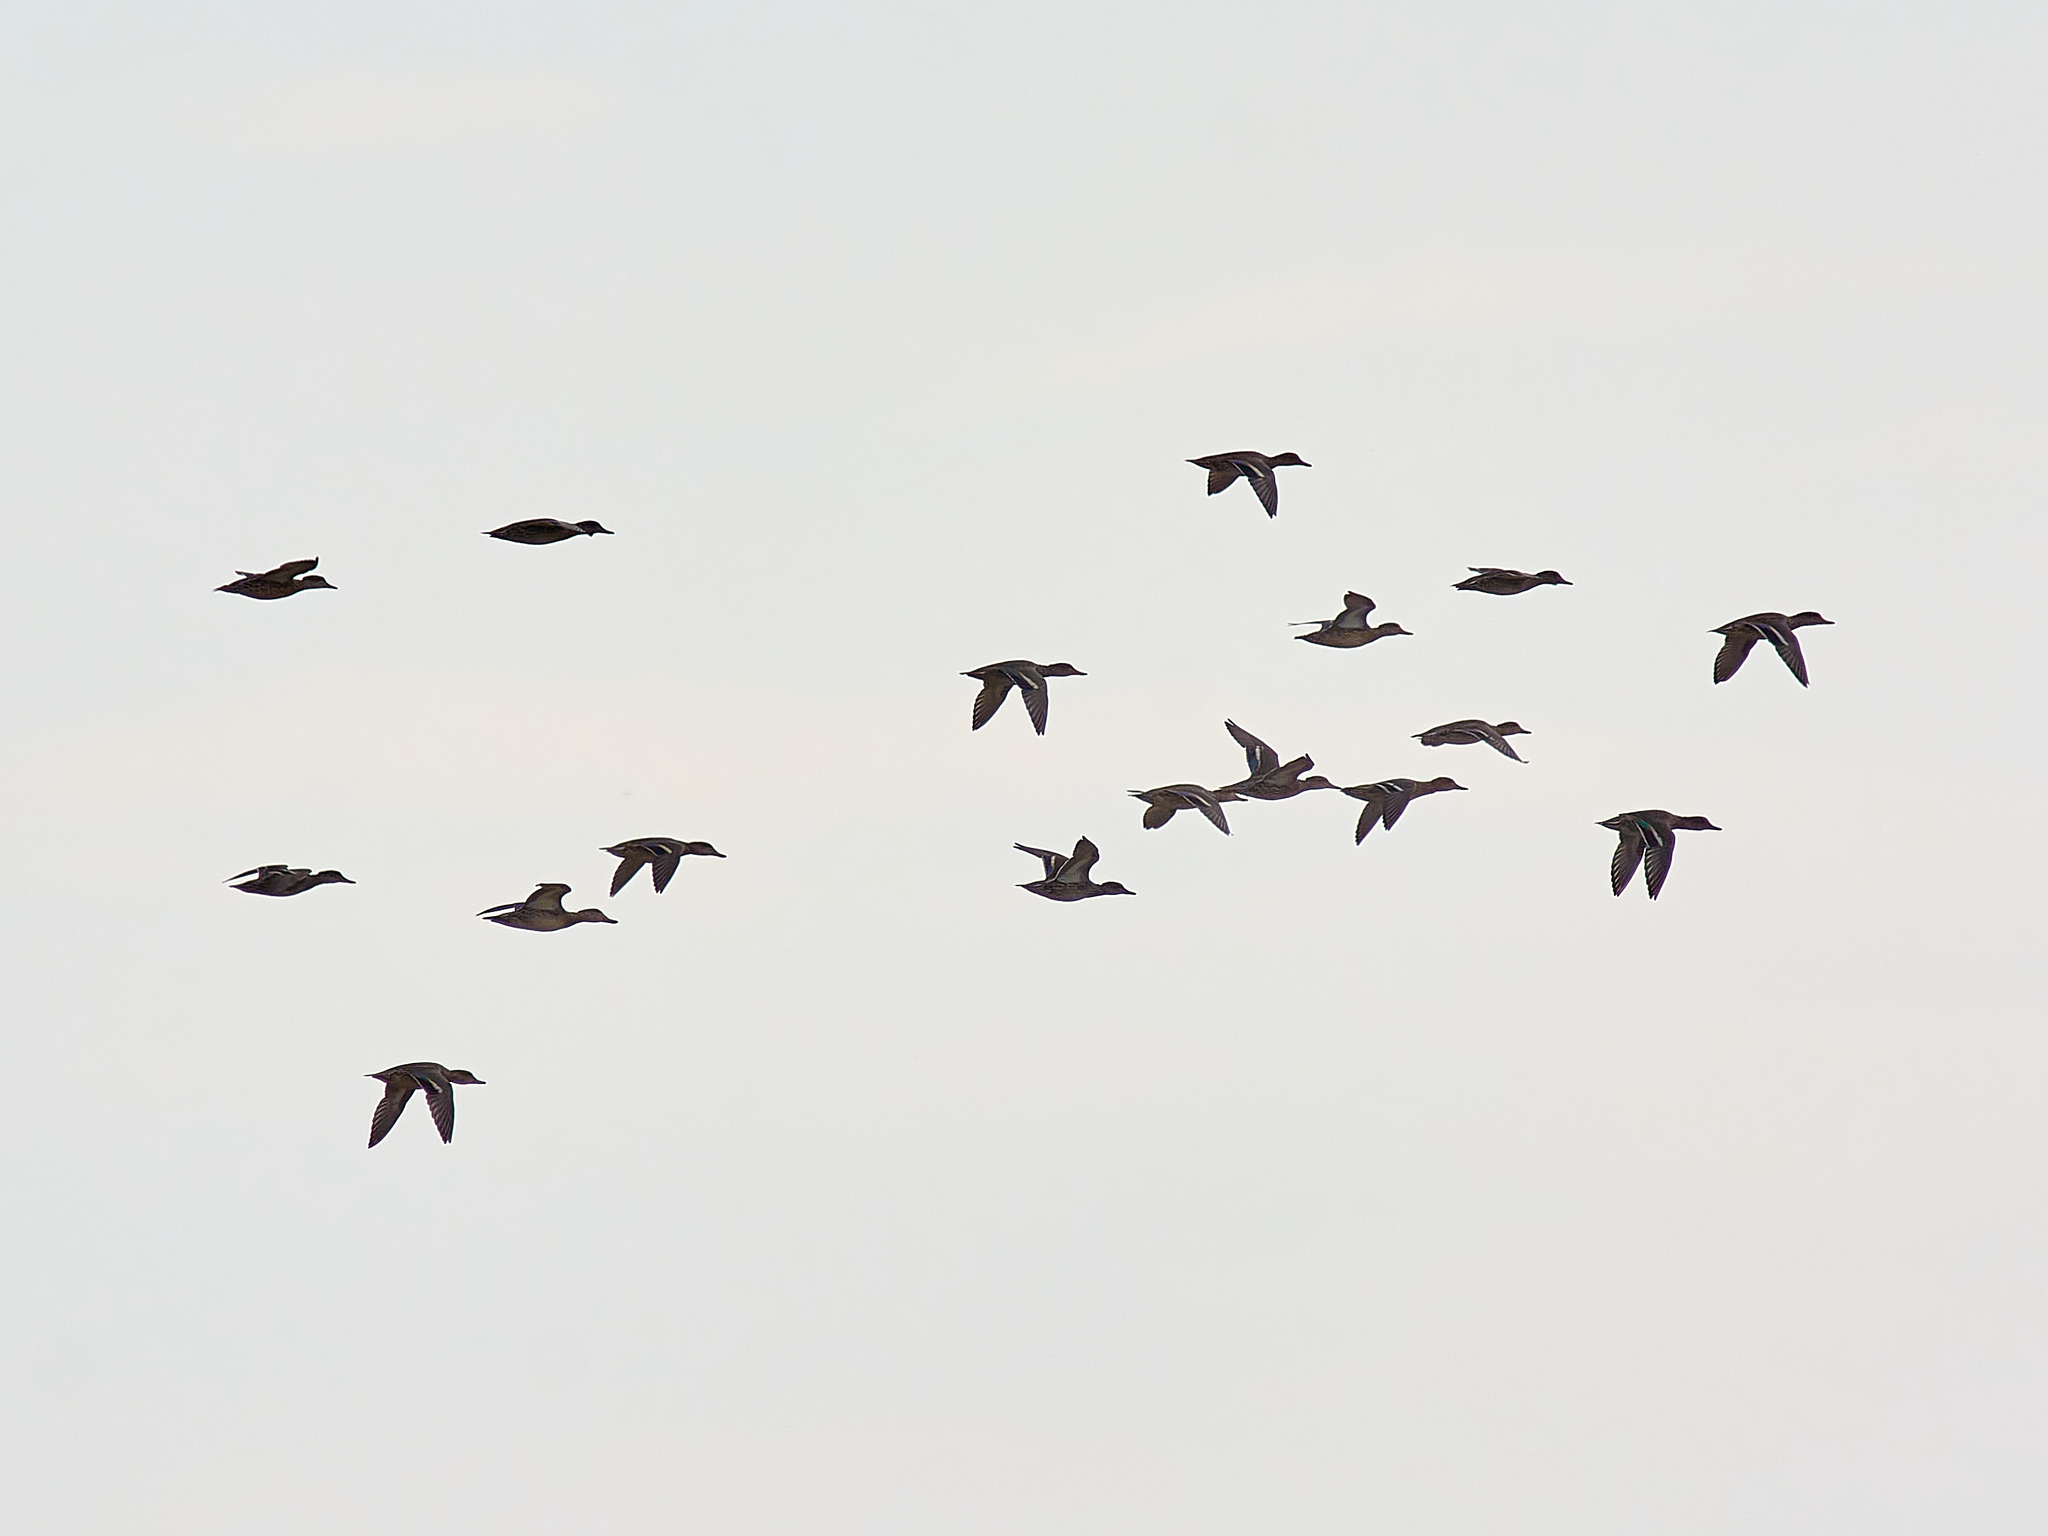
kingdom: Animalia
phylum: Chordata
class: Aves
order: Anseriformes
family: Anatidae
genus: Anas
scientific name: Anas crecca
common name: Eurasian teal
